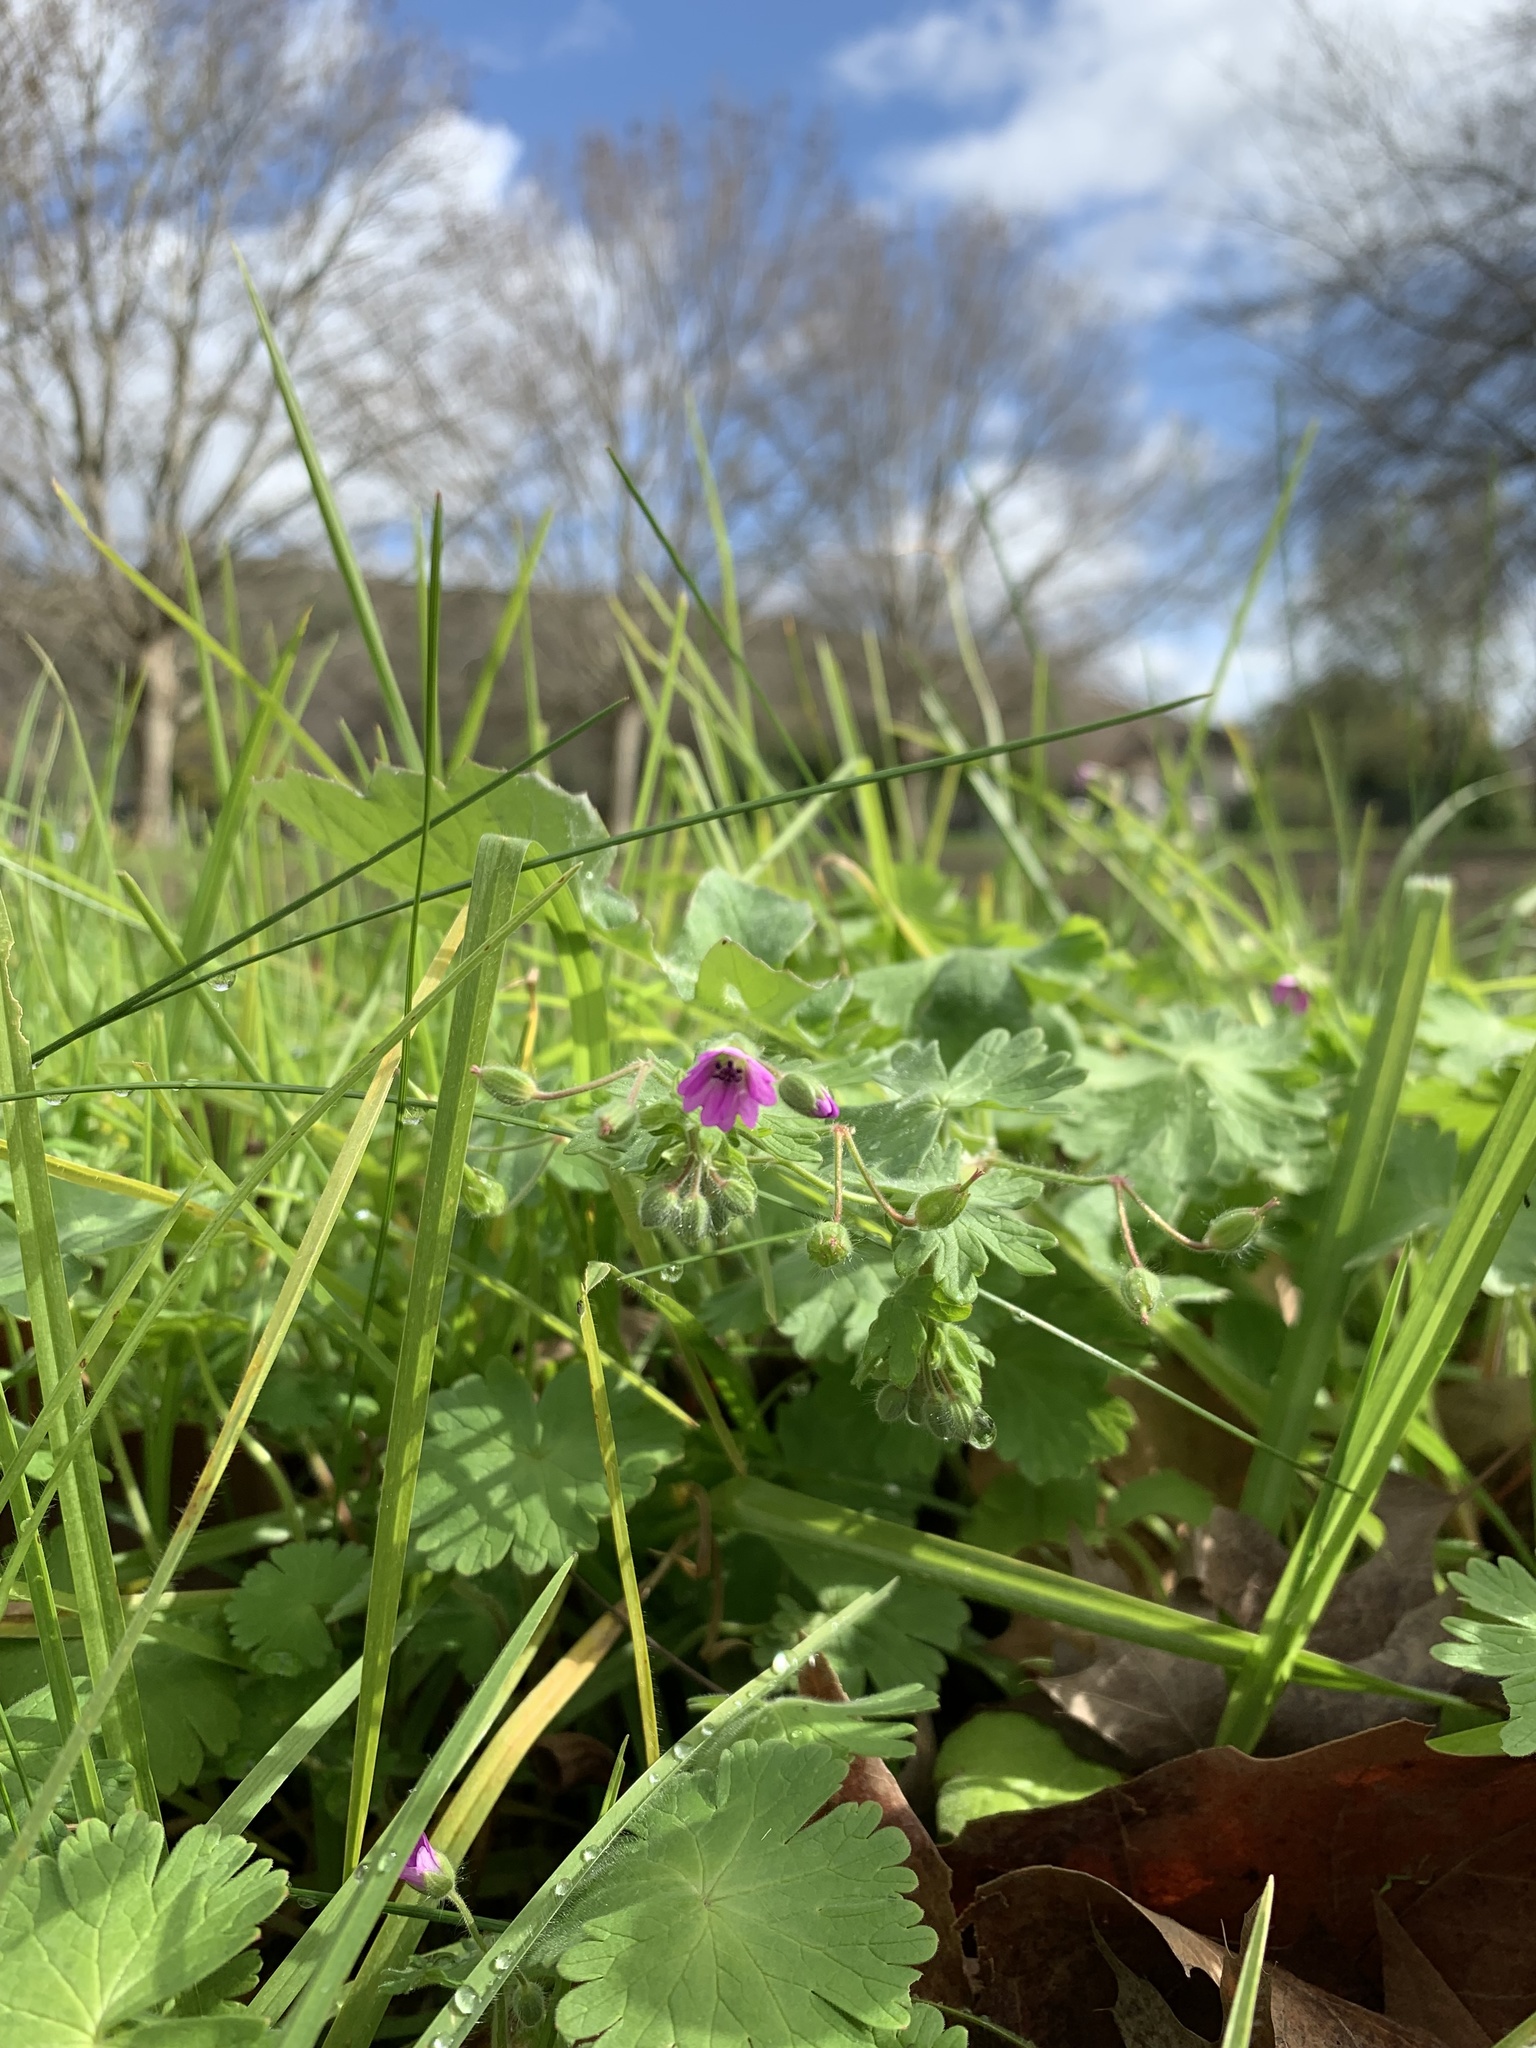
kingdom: Plantae
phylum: Tracheophyta
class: Magnoliopsida
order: Geraniales
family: Geraniaceae
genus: Geranium
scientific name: Geranium molle
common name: Dove's-foot crane's-bill
